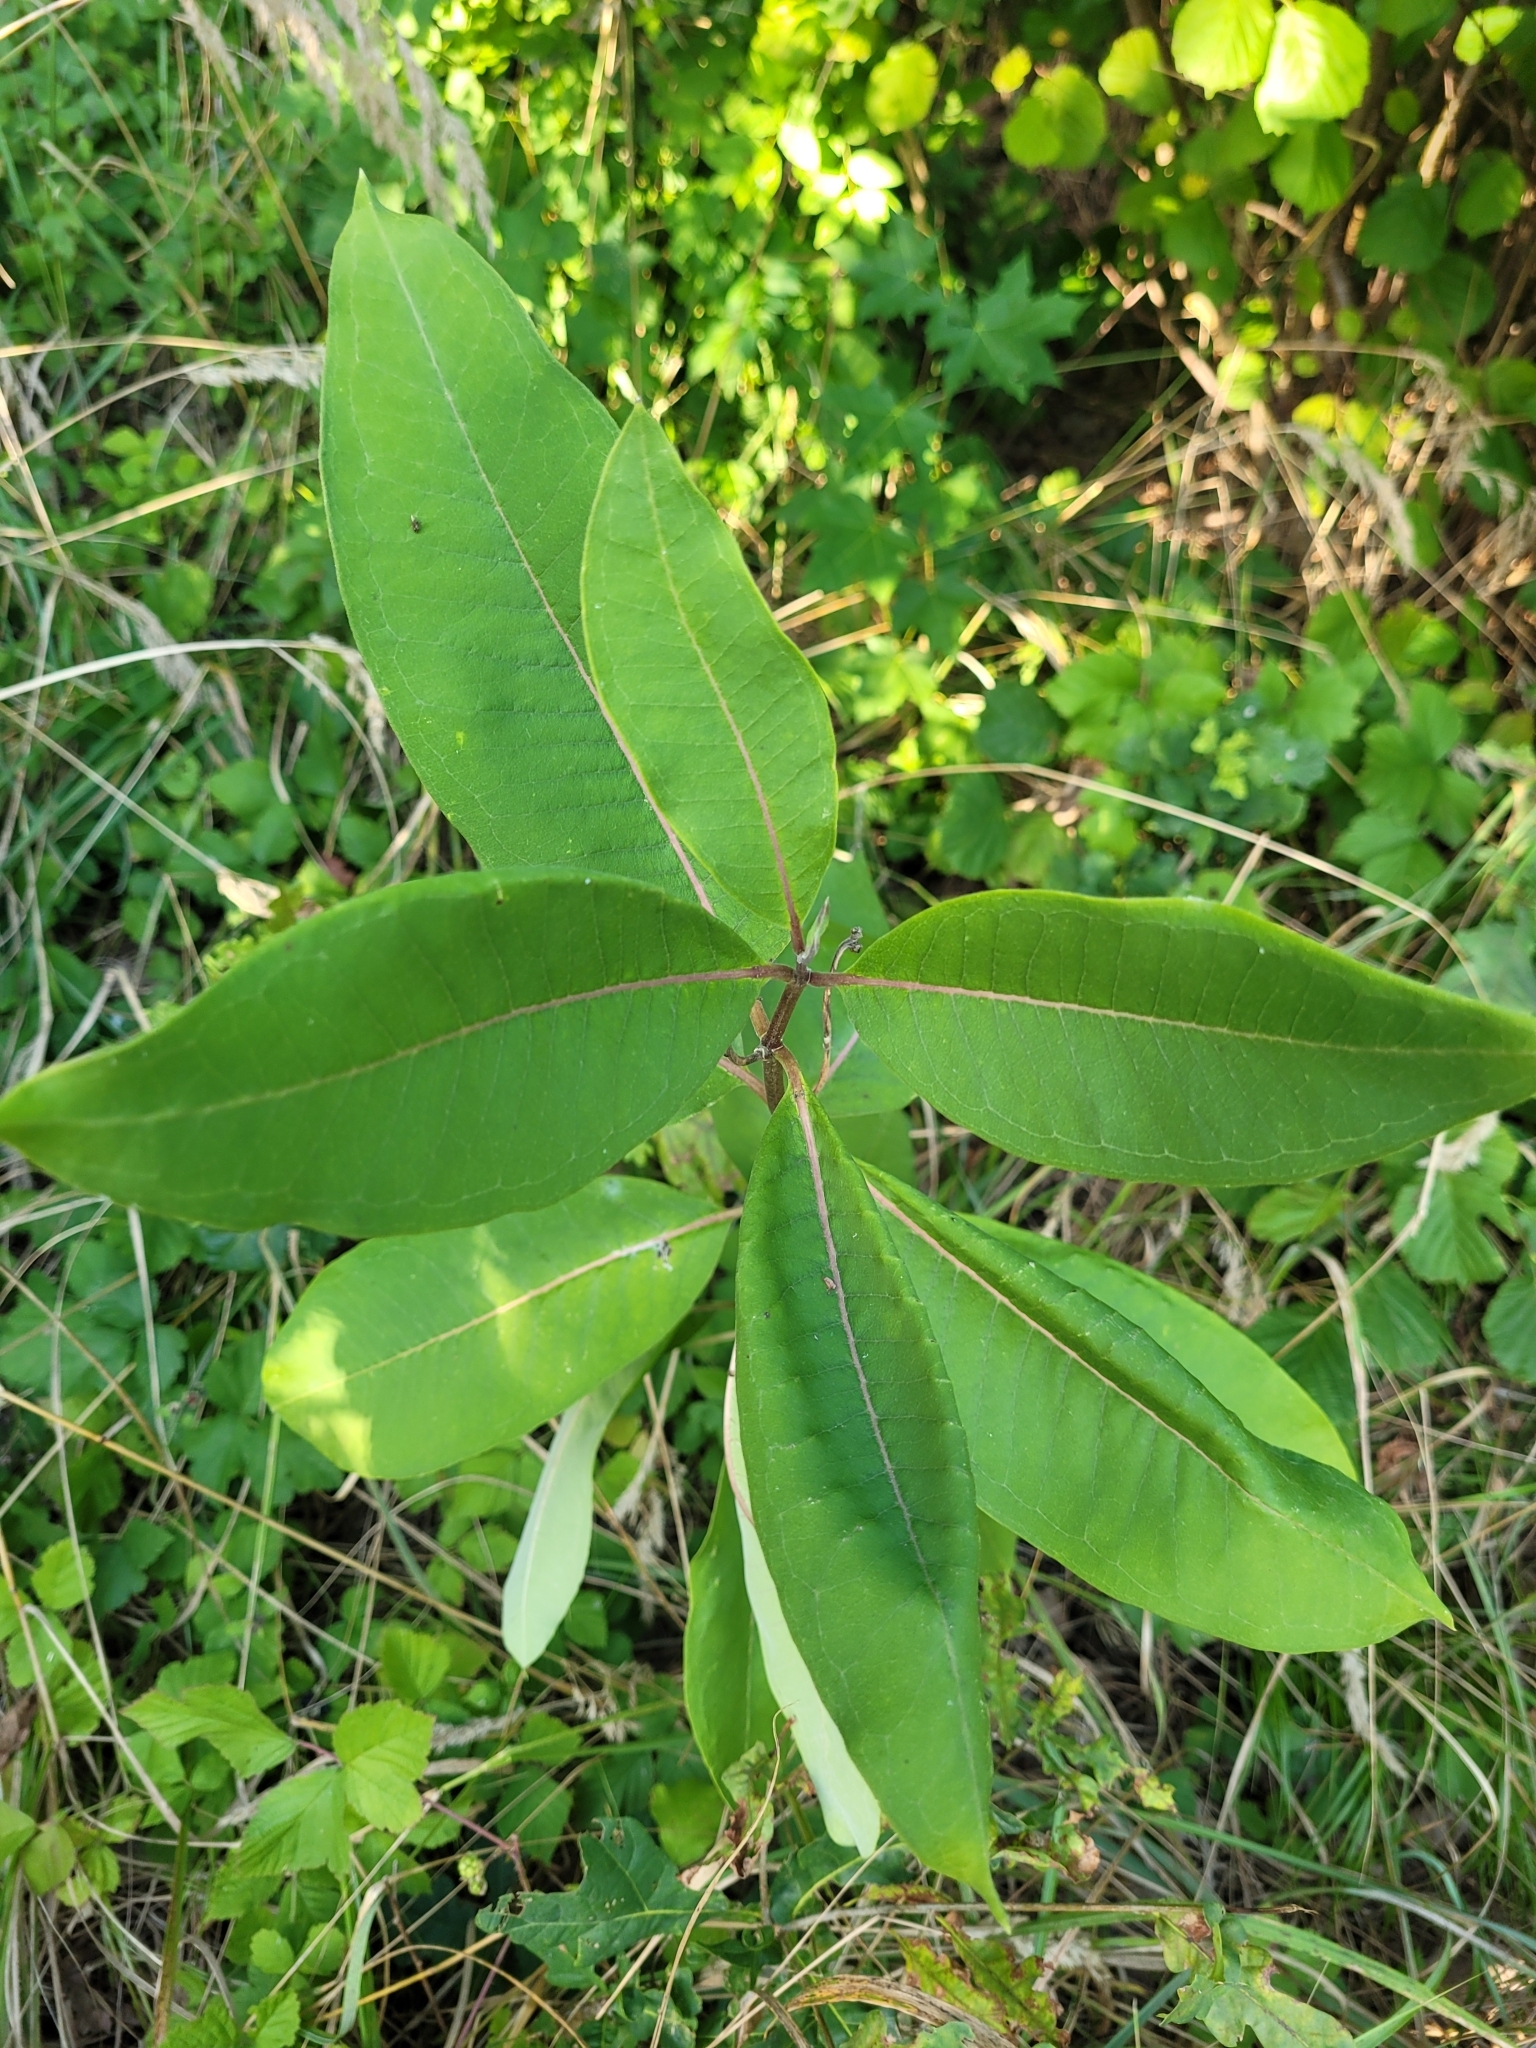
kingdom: Plantae
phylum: Tracheophyta
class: Magnoliopsida
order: Gentianales
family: Apocynaceae
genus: Asclepias
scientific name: Asclepias syriaca
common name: Common milkweed
